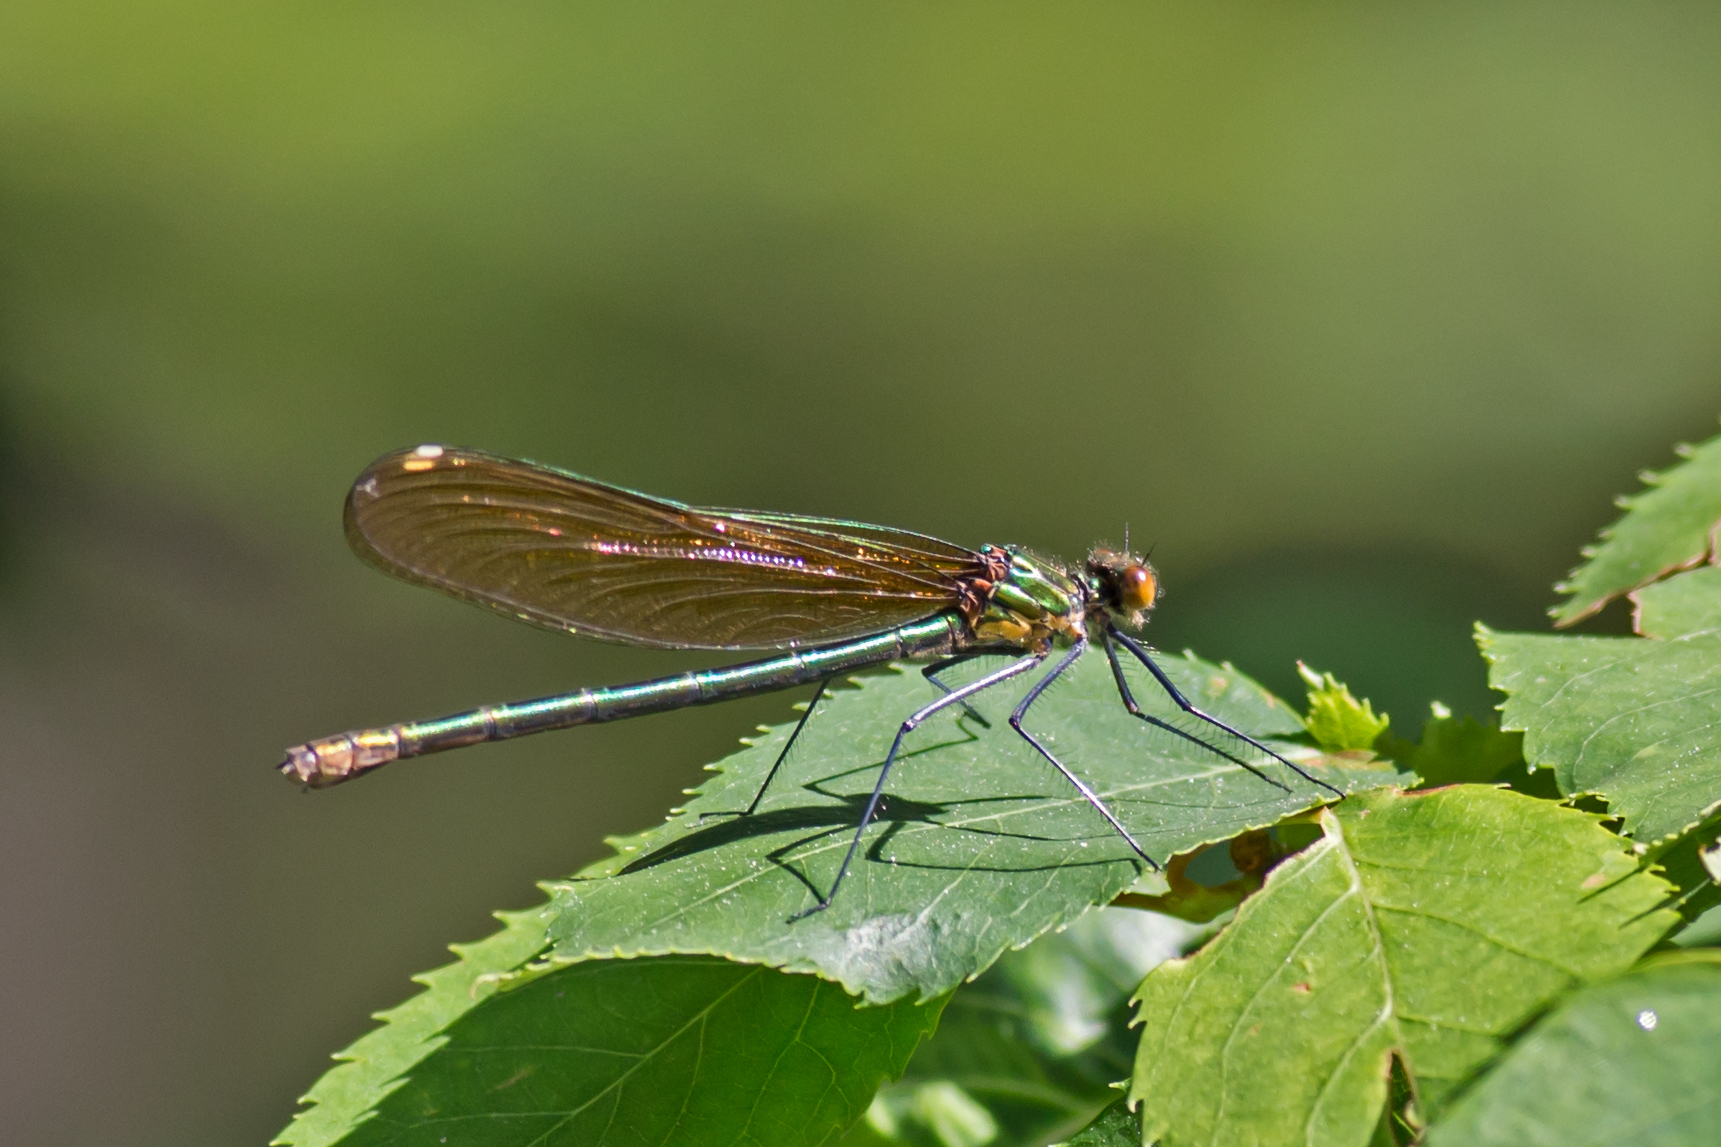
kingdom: Animalia
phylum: Arthropoda
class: Insecta
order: Odonata
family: Calopterygidae
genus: Calopteryx
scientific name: Calopteryx amata
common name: Superb jewelwing
